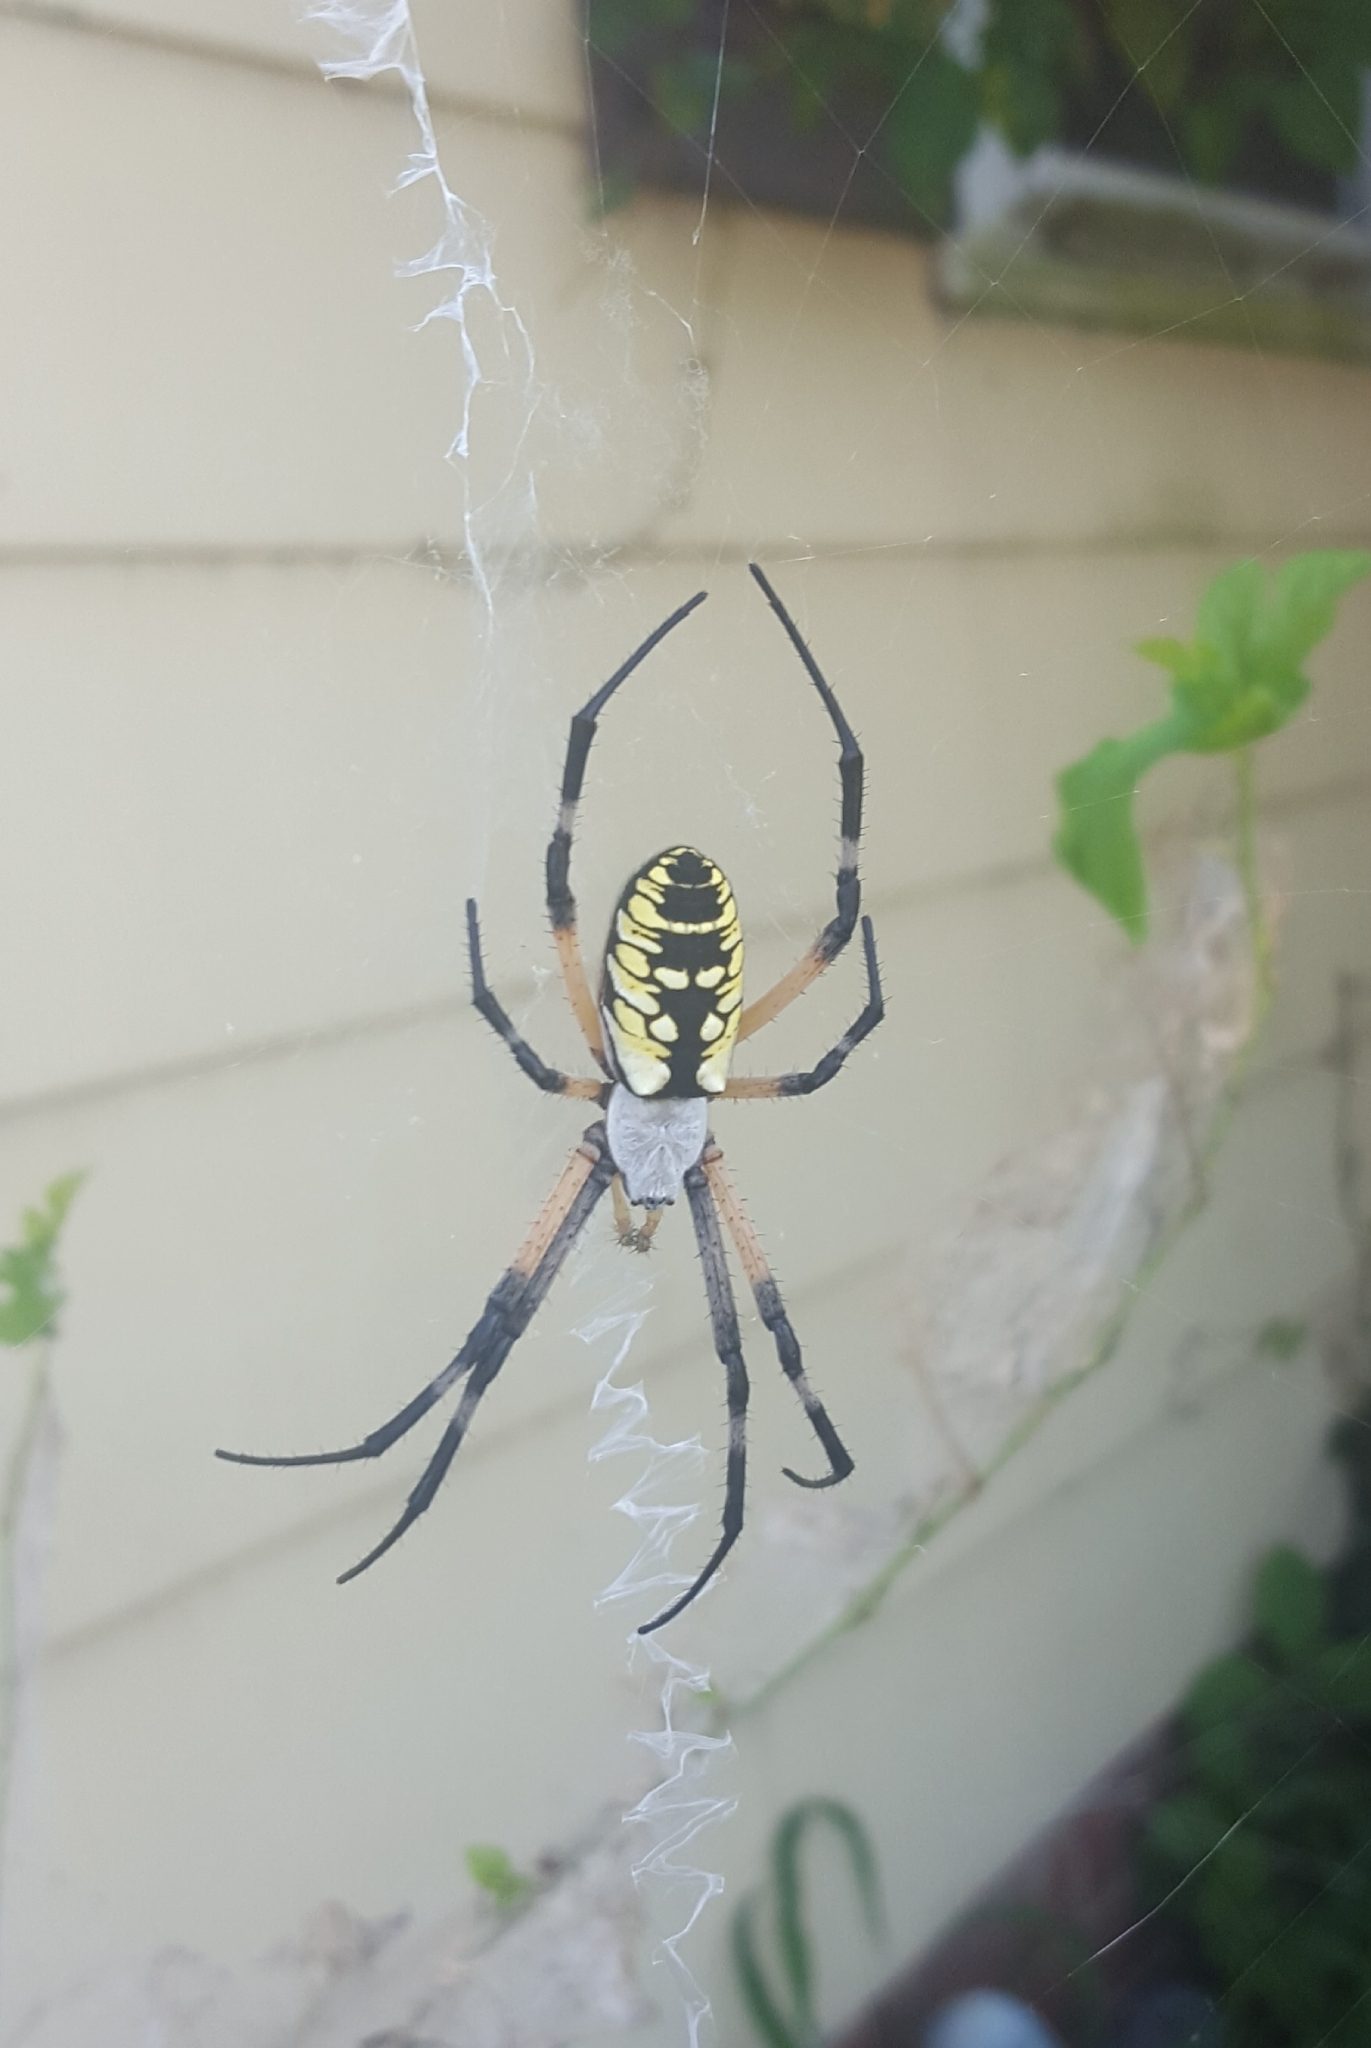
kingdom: Animalia
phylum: Arthropoda
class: Arachnida
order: Araneae
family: Araneidae
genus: Argiope
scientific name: Argiope aurantia
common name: Orb weavers
